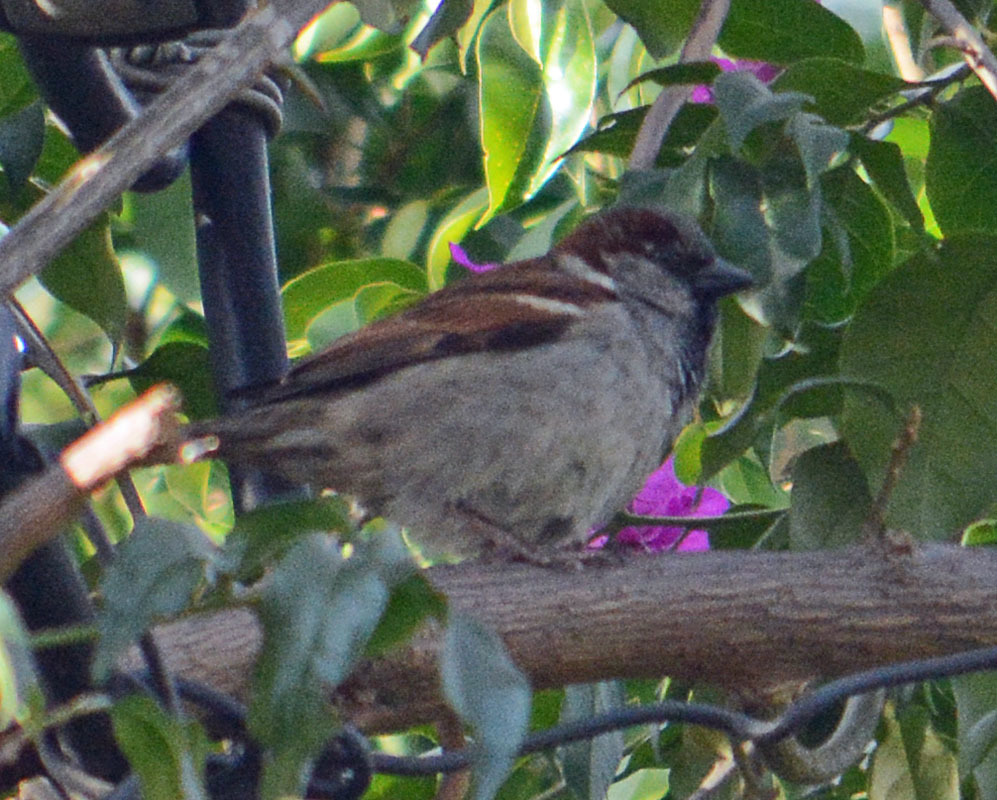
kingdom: Animalia
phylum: Chordata
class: Aves
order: Passeriformes
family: Passeridae
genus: Passer
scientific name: Passer domesticus
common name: House sparrow
